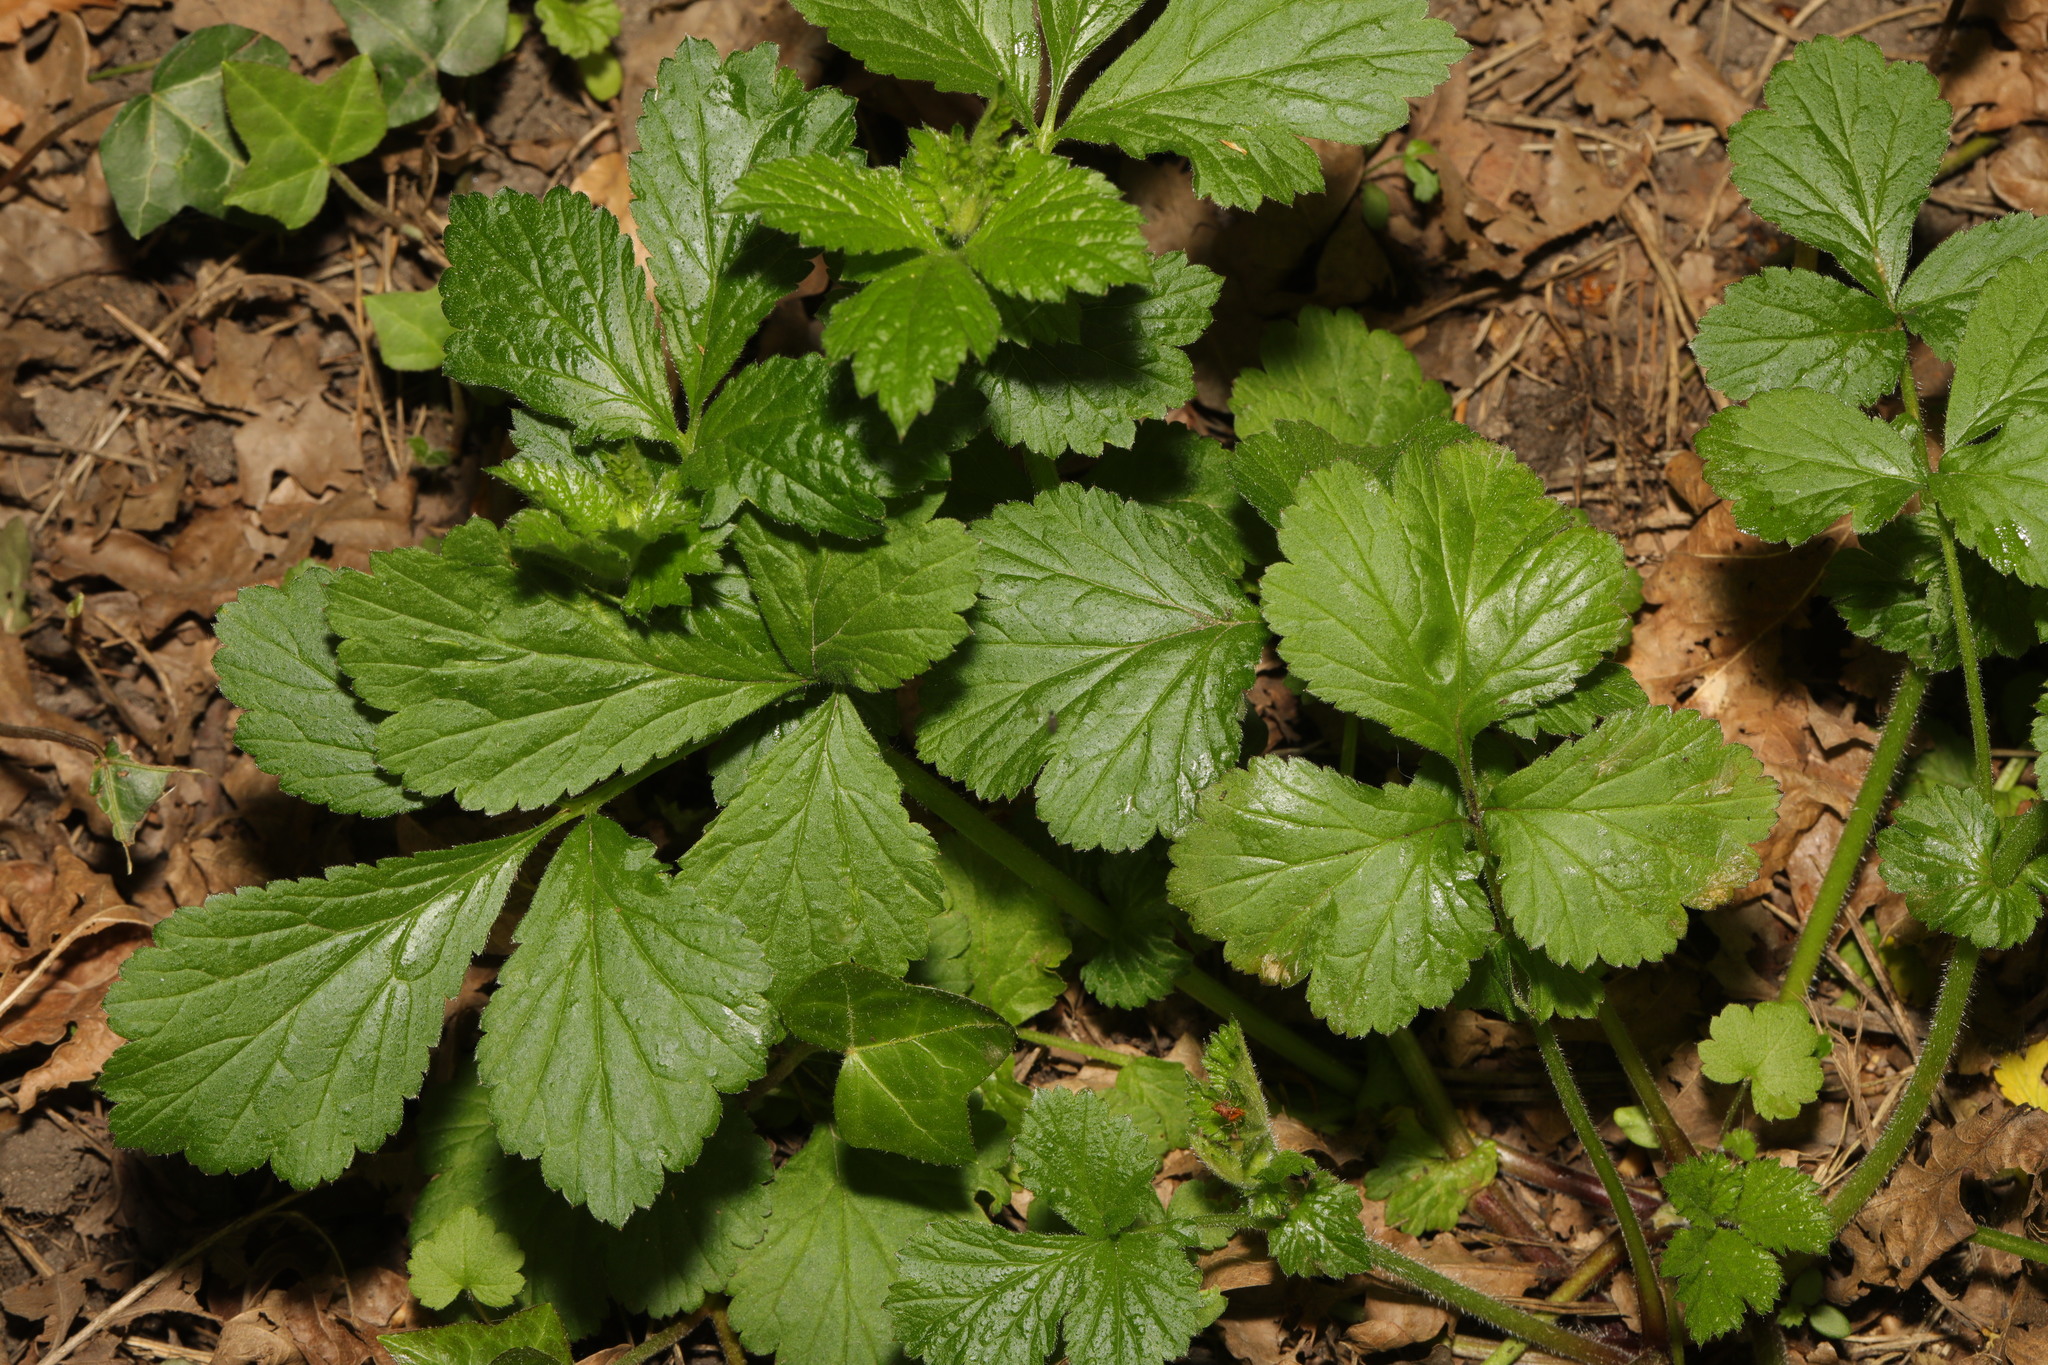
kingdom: Plantae
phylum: Tracheophyta
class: Magnoliopsida
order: Rosales
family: Rosaceae
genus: Geum
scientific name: Geum urbanum
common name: Wood avens
